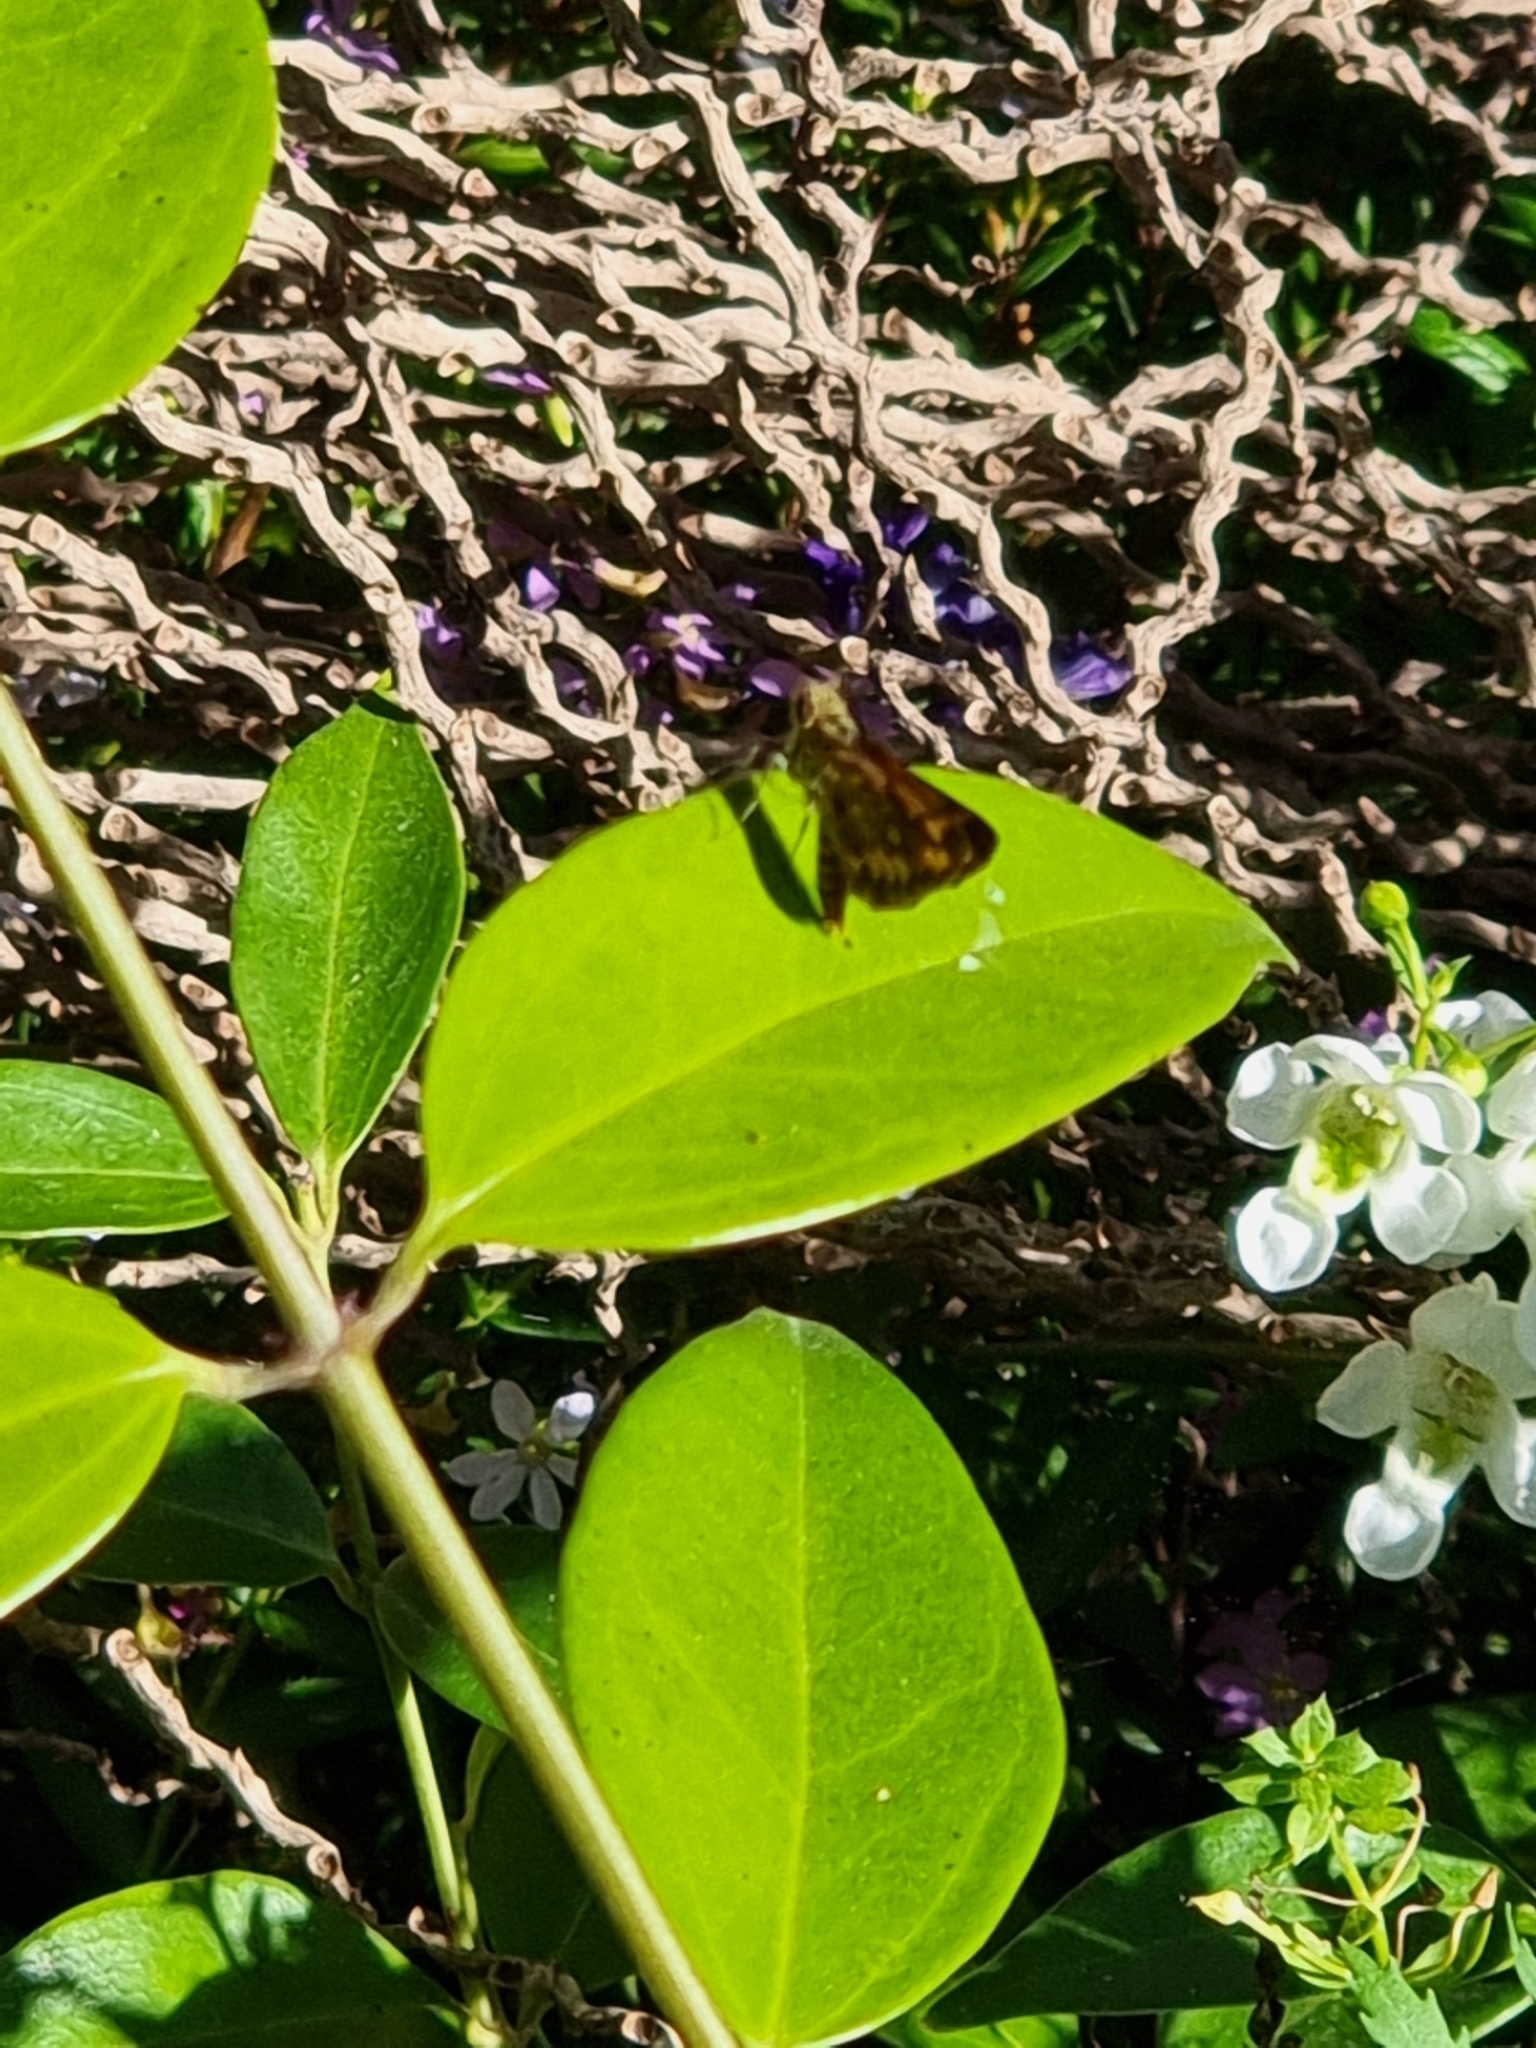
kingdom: Animalia
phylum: Arthropoda
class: Insecta
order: Lepidoptera
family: Hesperiidae
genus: Suniana
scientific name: Suniana sunias
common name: Wide-brand grass-dart
